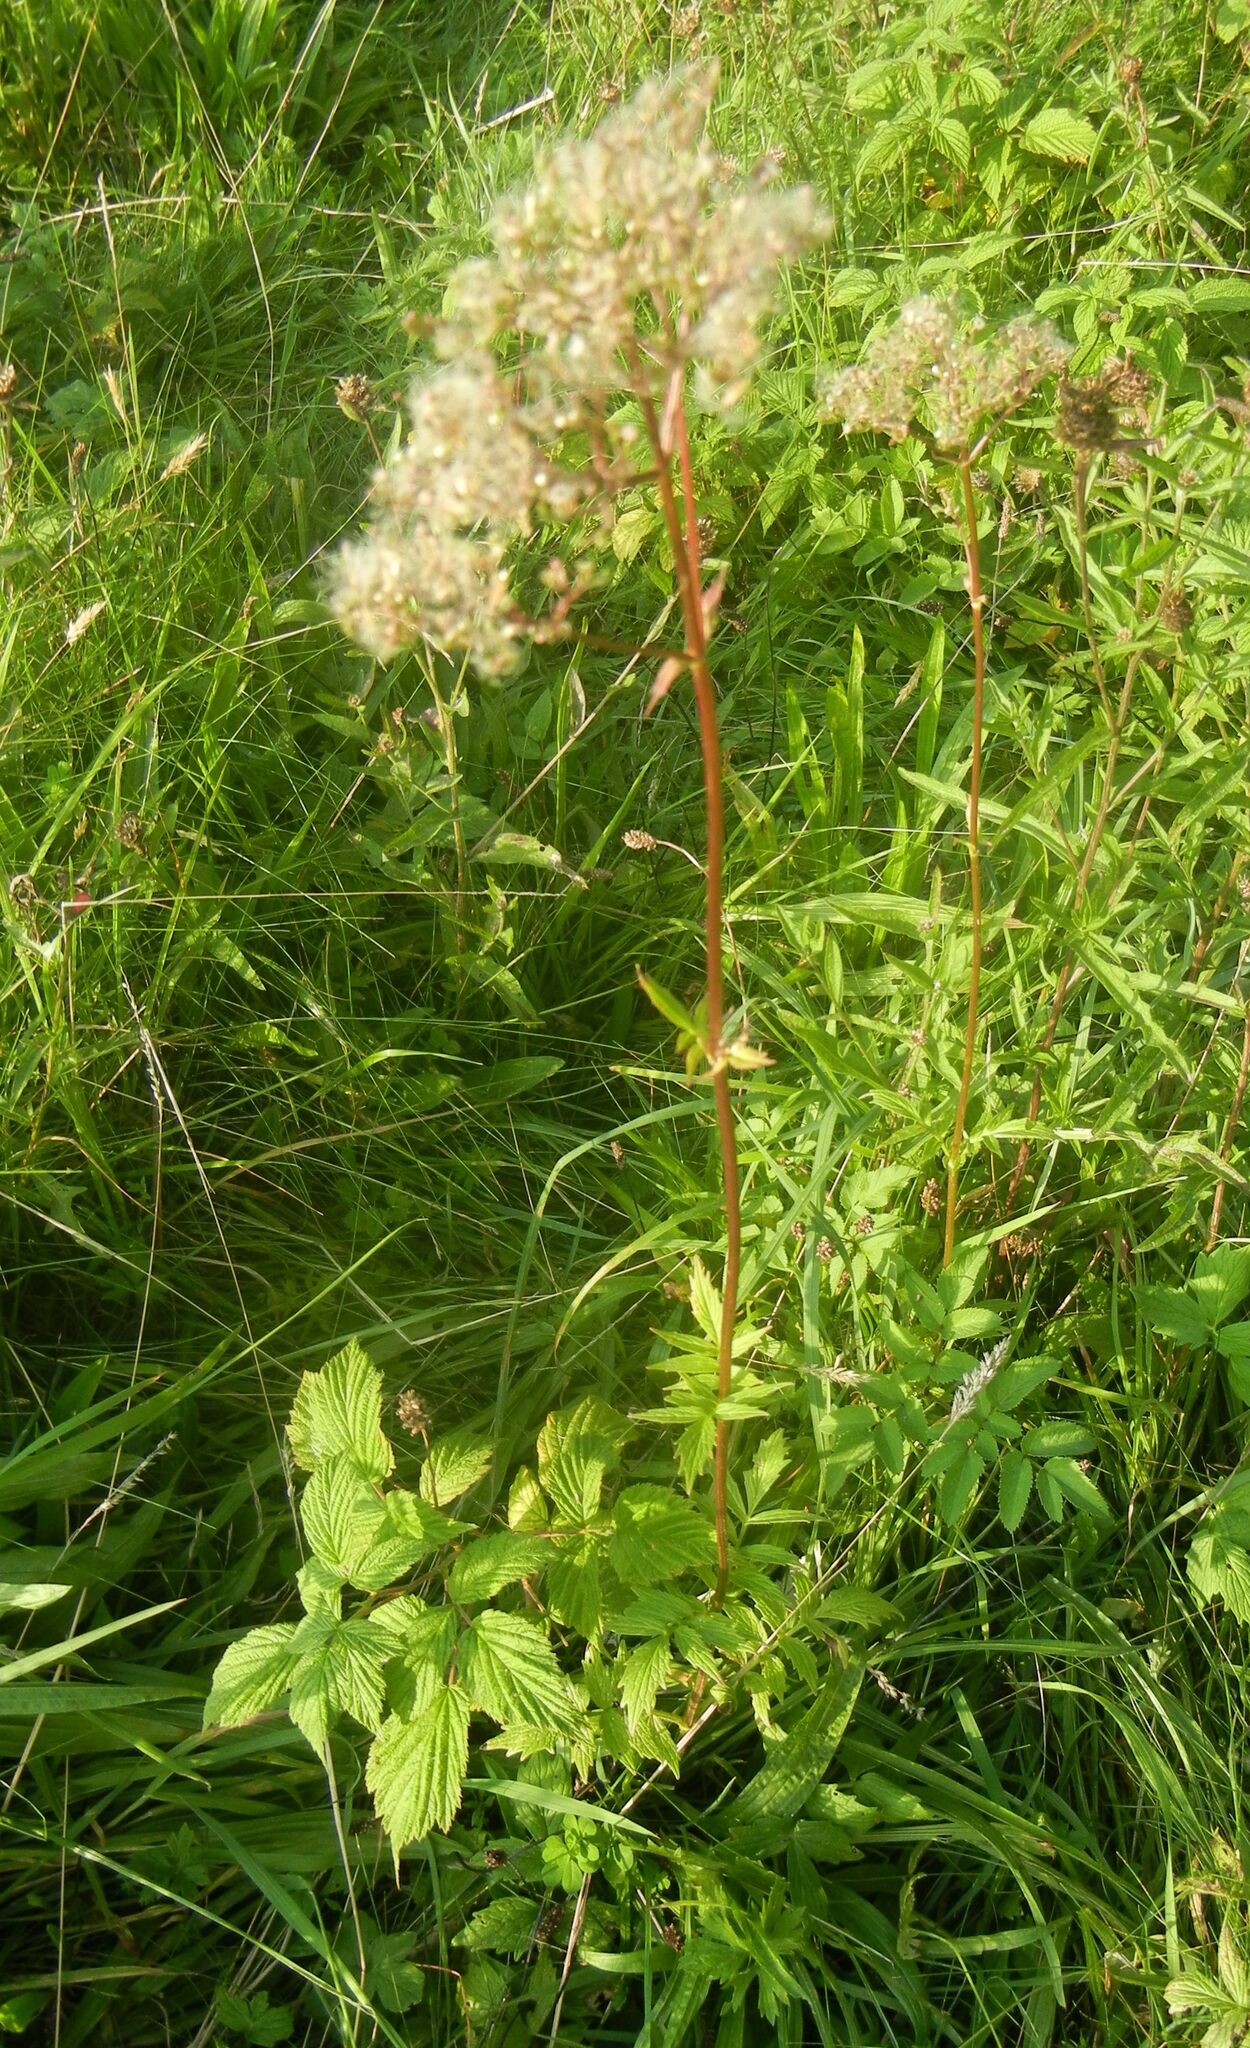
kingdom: Plantae
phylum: Tracheophyta
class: Magnoliopsida
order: Dipsacales
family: Caprifoliaceae
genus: Valeriana
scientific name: Valeriana officinalis
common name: Common valerian
